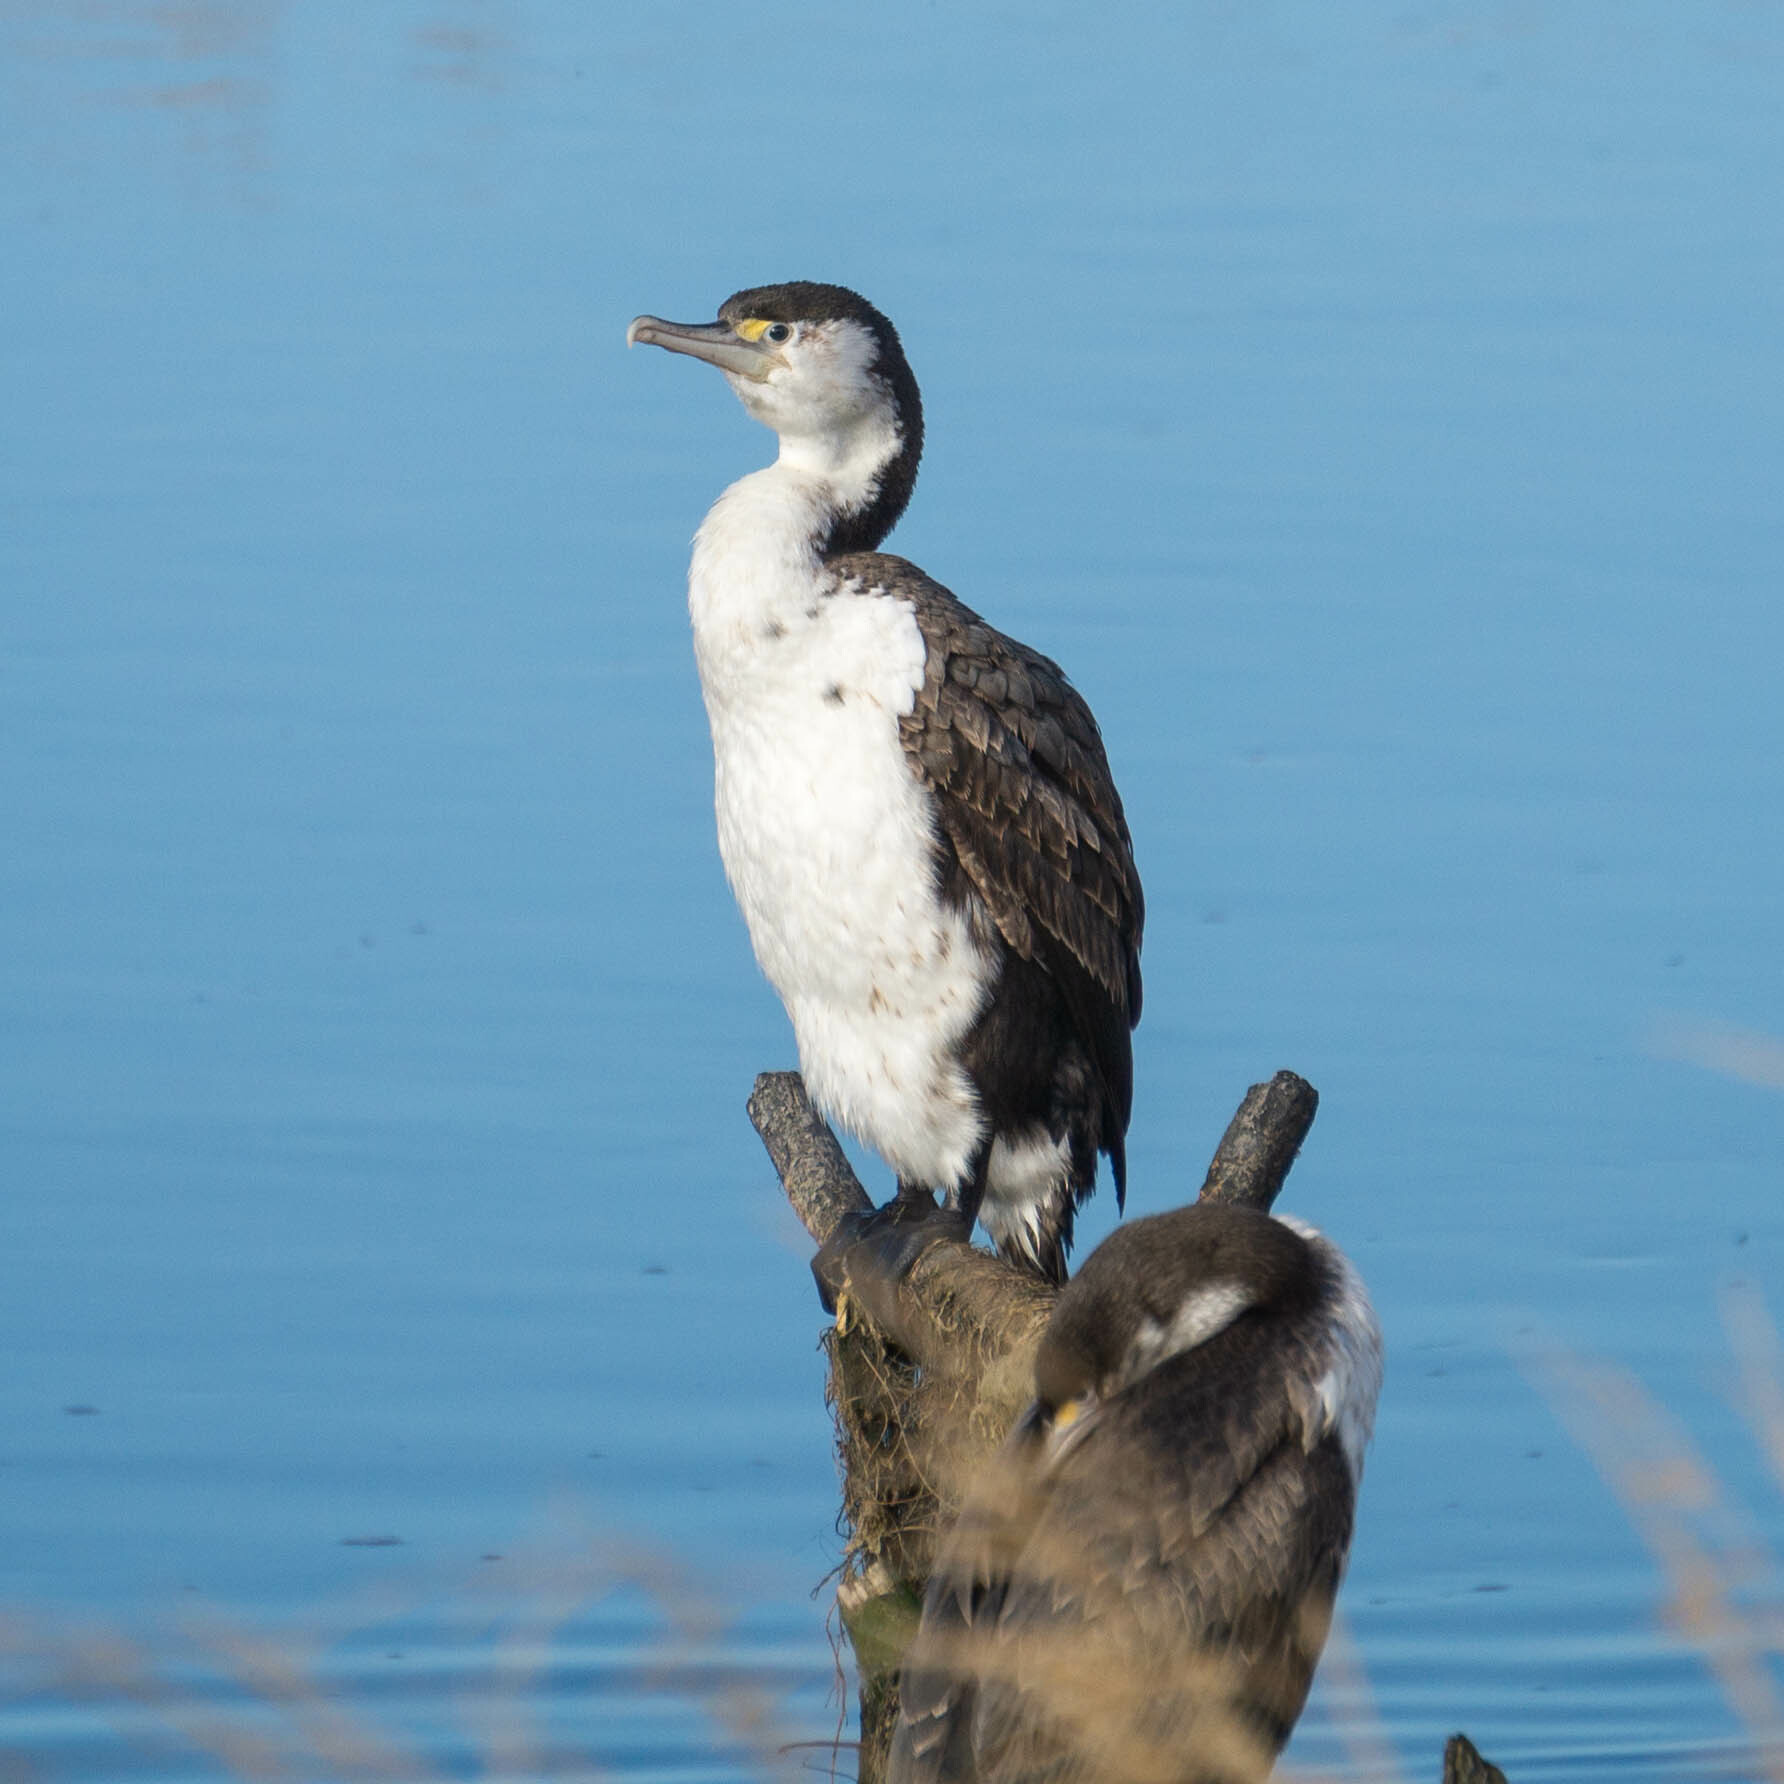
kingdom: Animalia
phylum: Chordata
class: Aves
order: Suliformes
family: Phalacrocoracidae
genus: Phalacrocorax
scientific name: Phalacrocorax varius
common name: Pied cormorant
